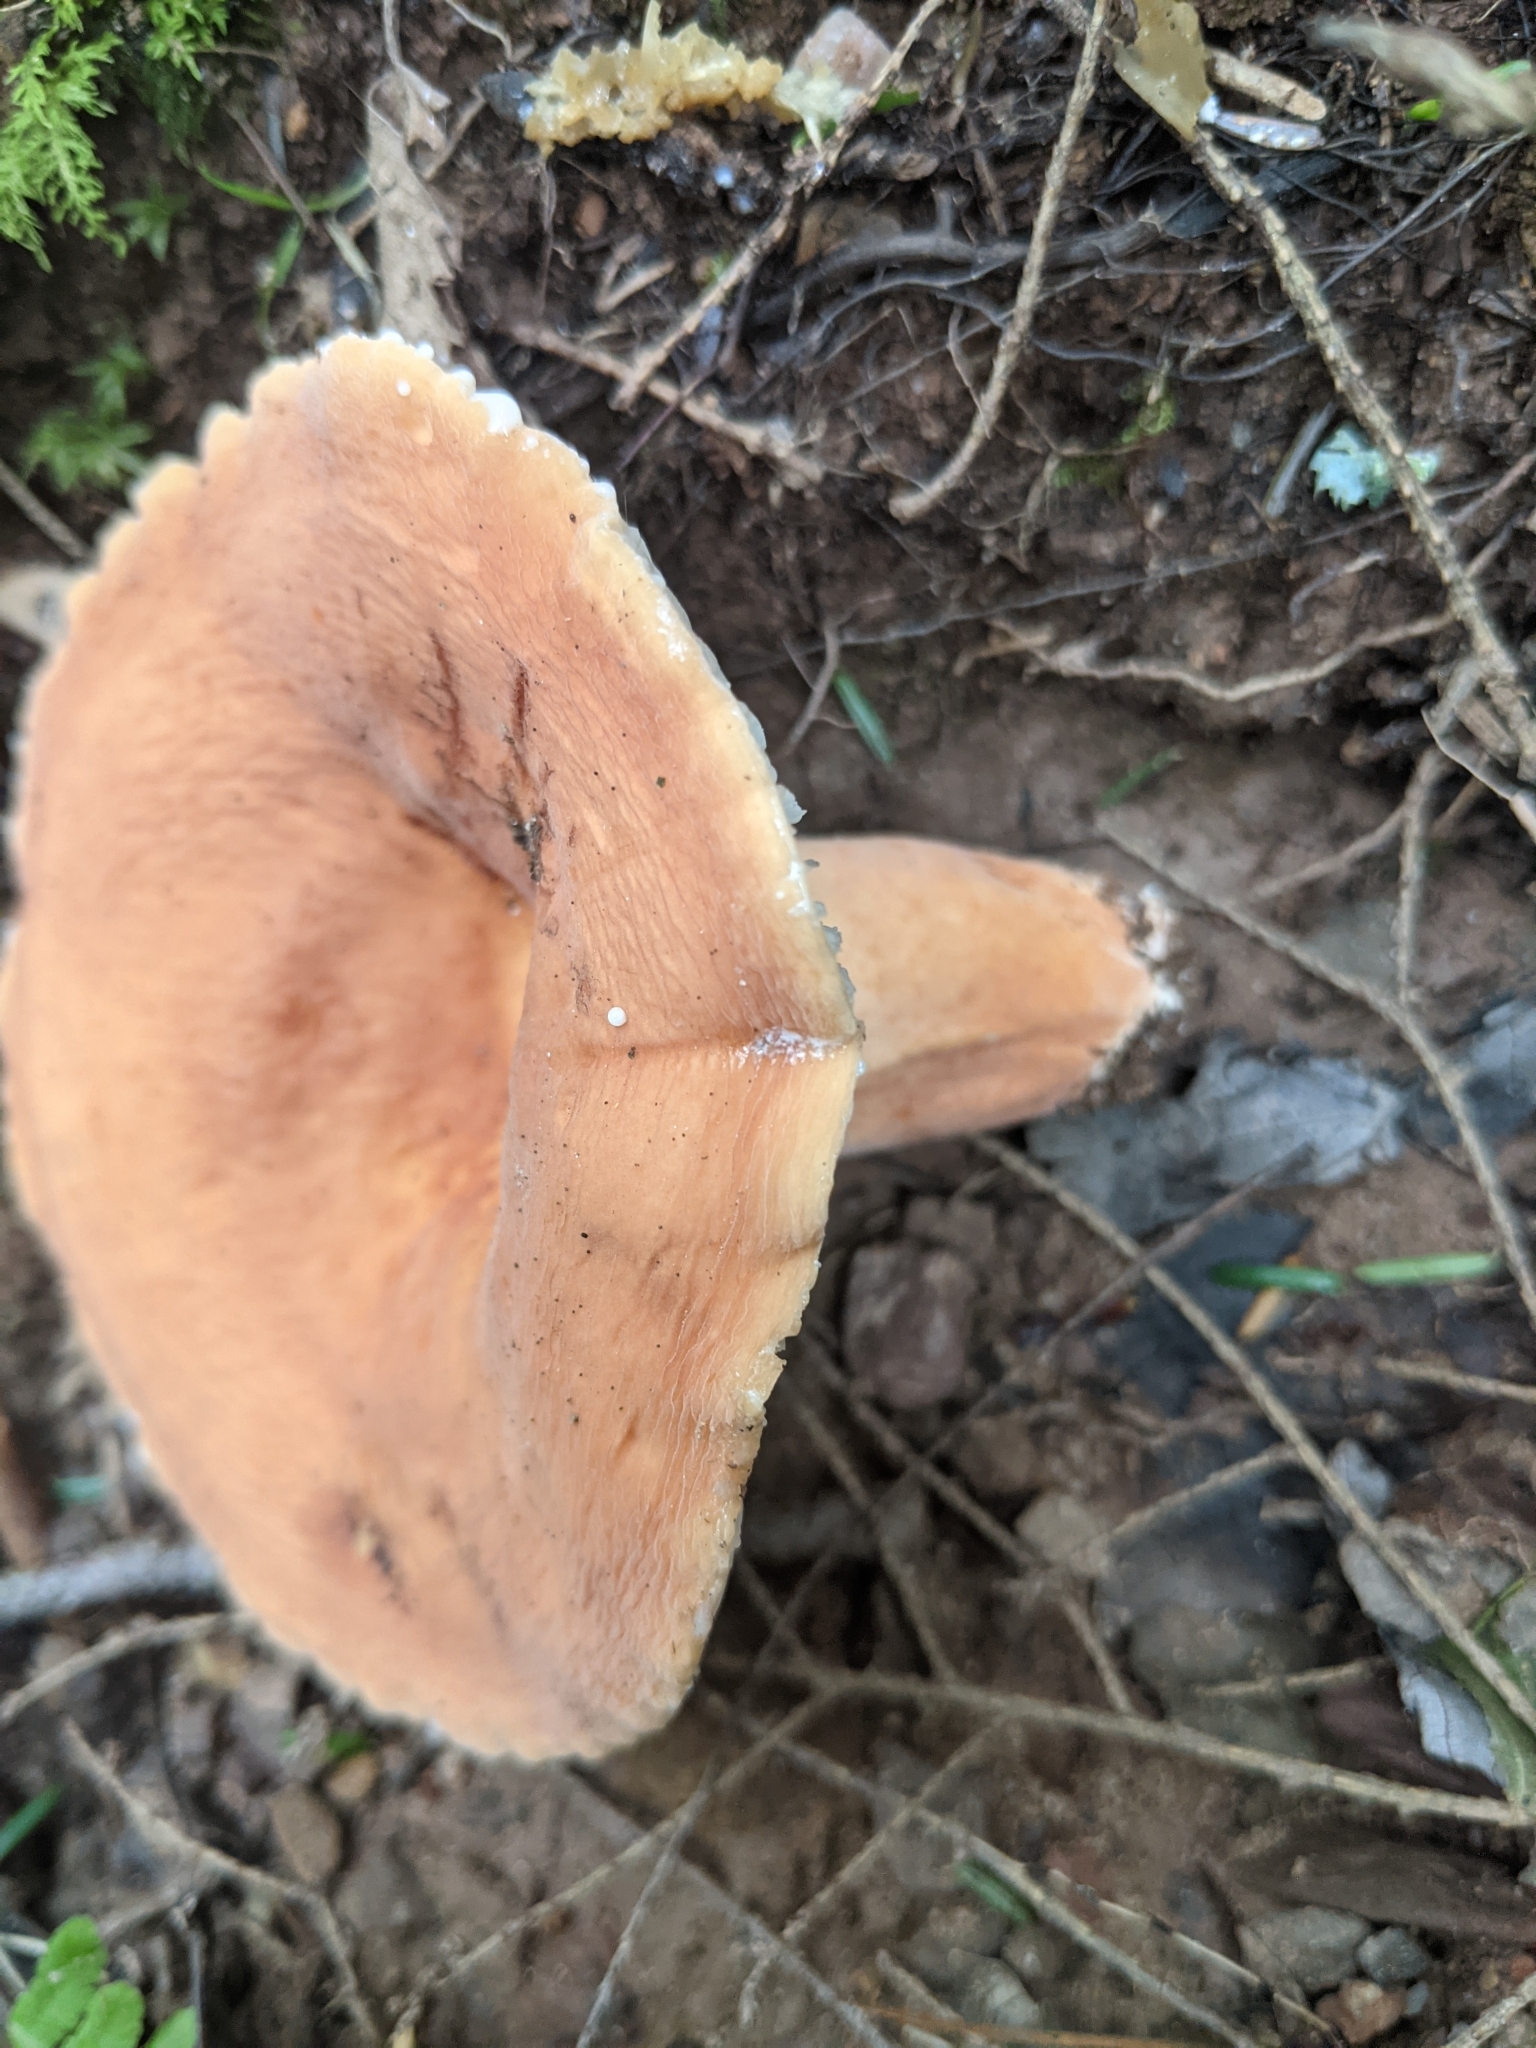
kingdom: Fungi
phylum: Basidiomycota
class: Agaricomycetes
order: Russulales
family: Russulaceae
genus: Lactarius
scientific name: Lactarius hygrophoroides
